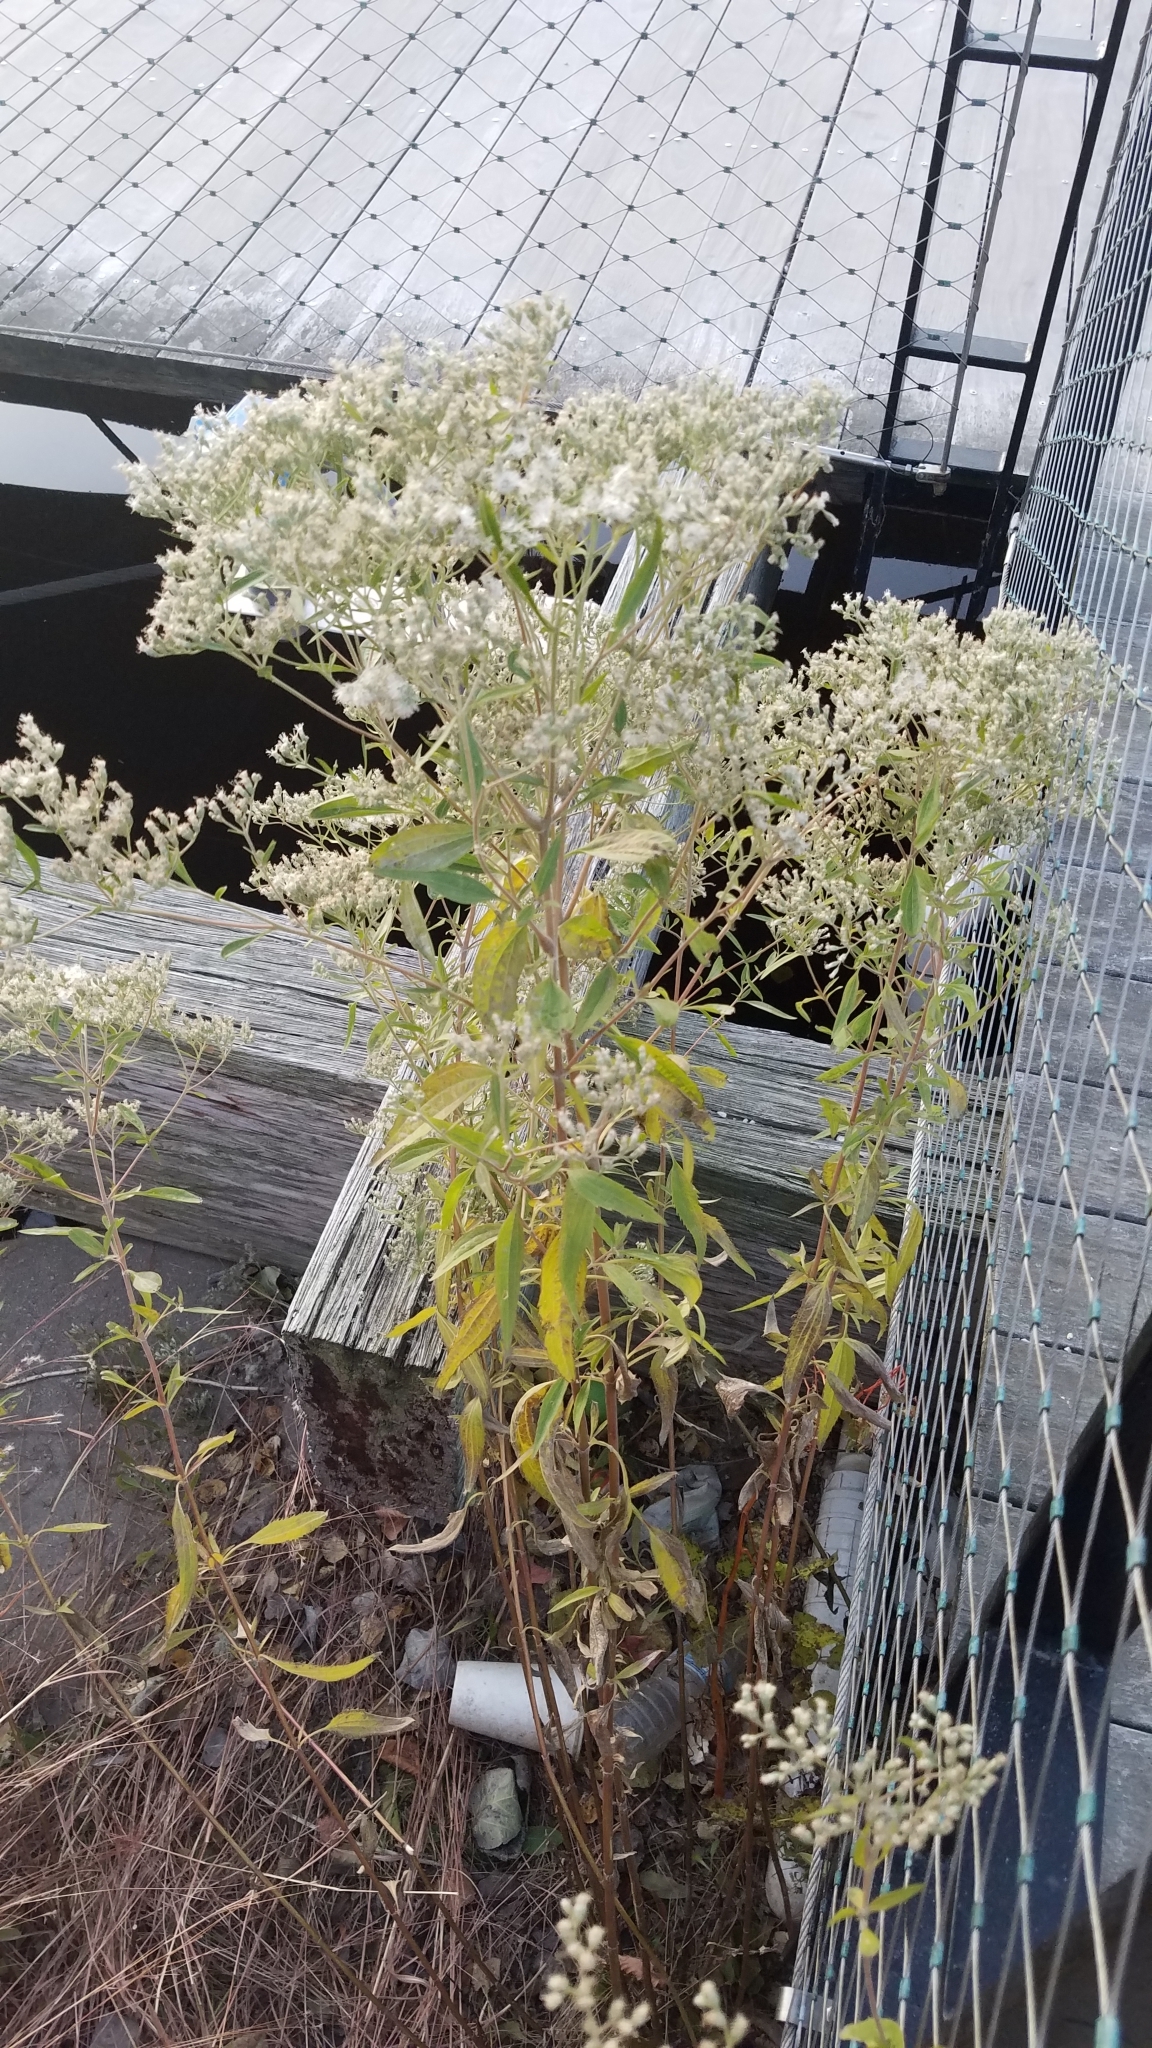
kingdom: Plantae
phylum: Tracheophyta
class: Magnoliopsida
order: Asterales
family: Asteraceae
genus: Eupatorium
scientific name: Eupatorium serotinum
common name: Late boneset
